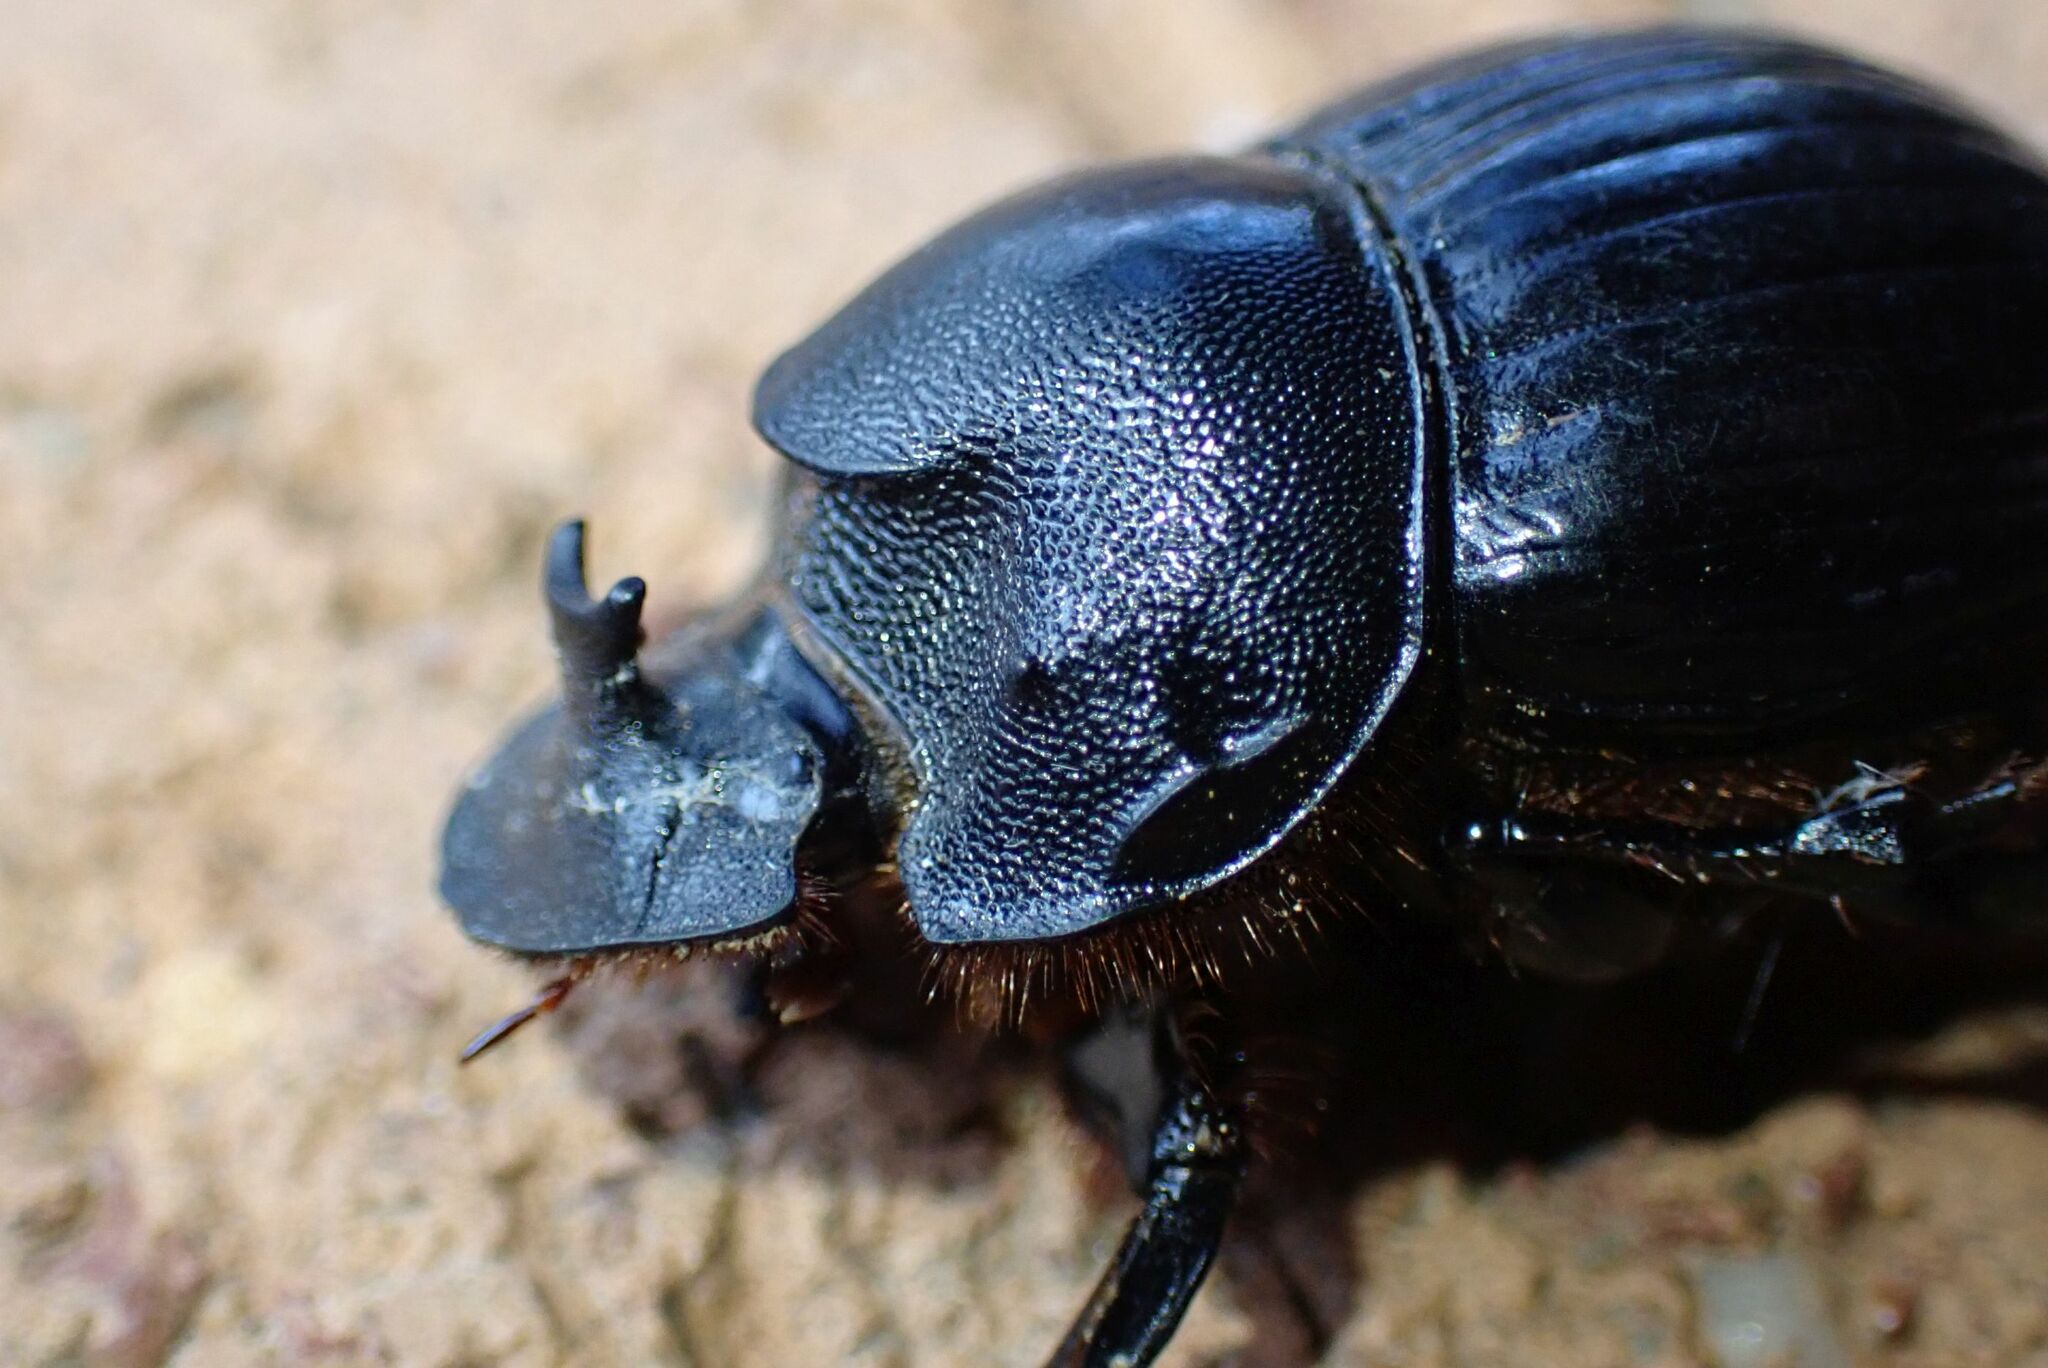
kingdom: Animalia
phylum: Arthropoda
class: Insecta
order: Coleoptera
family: Scarabaeidae
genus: Copris
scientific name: Copris elphenor
